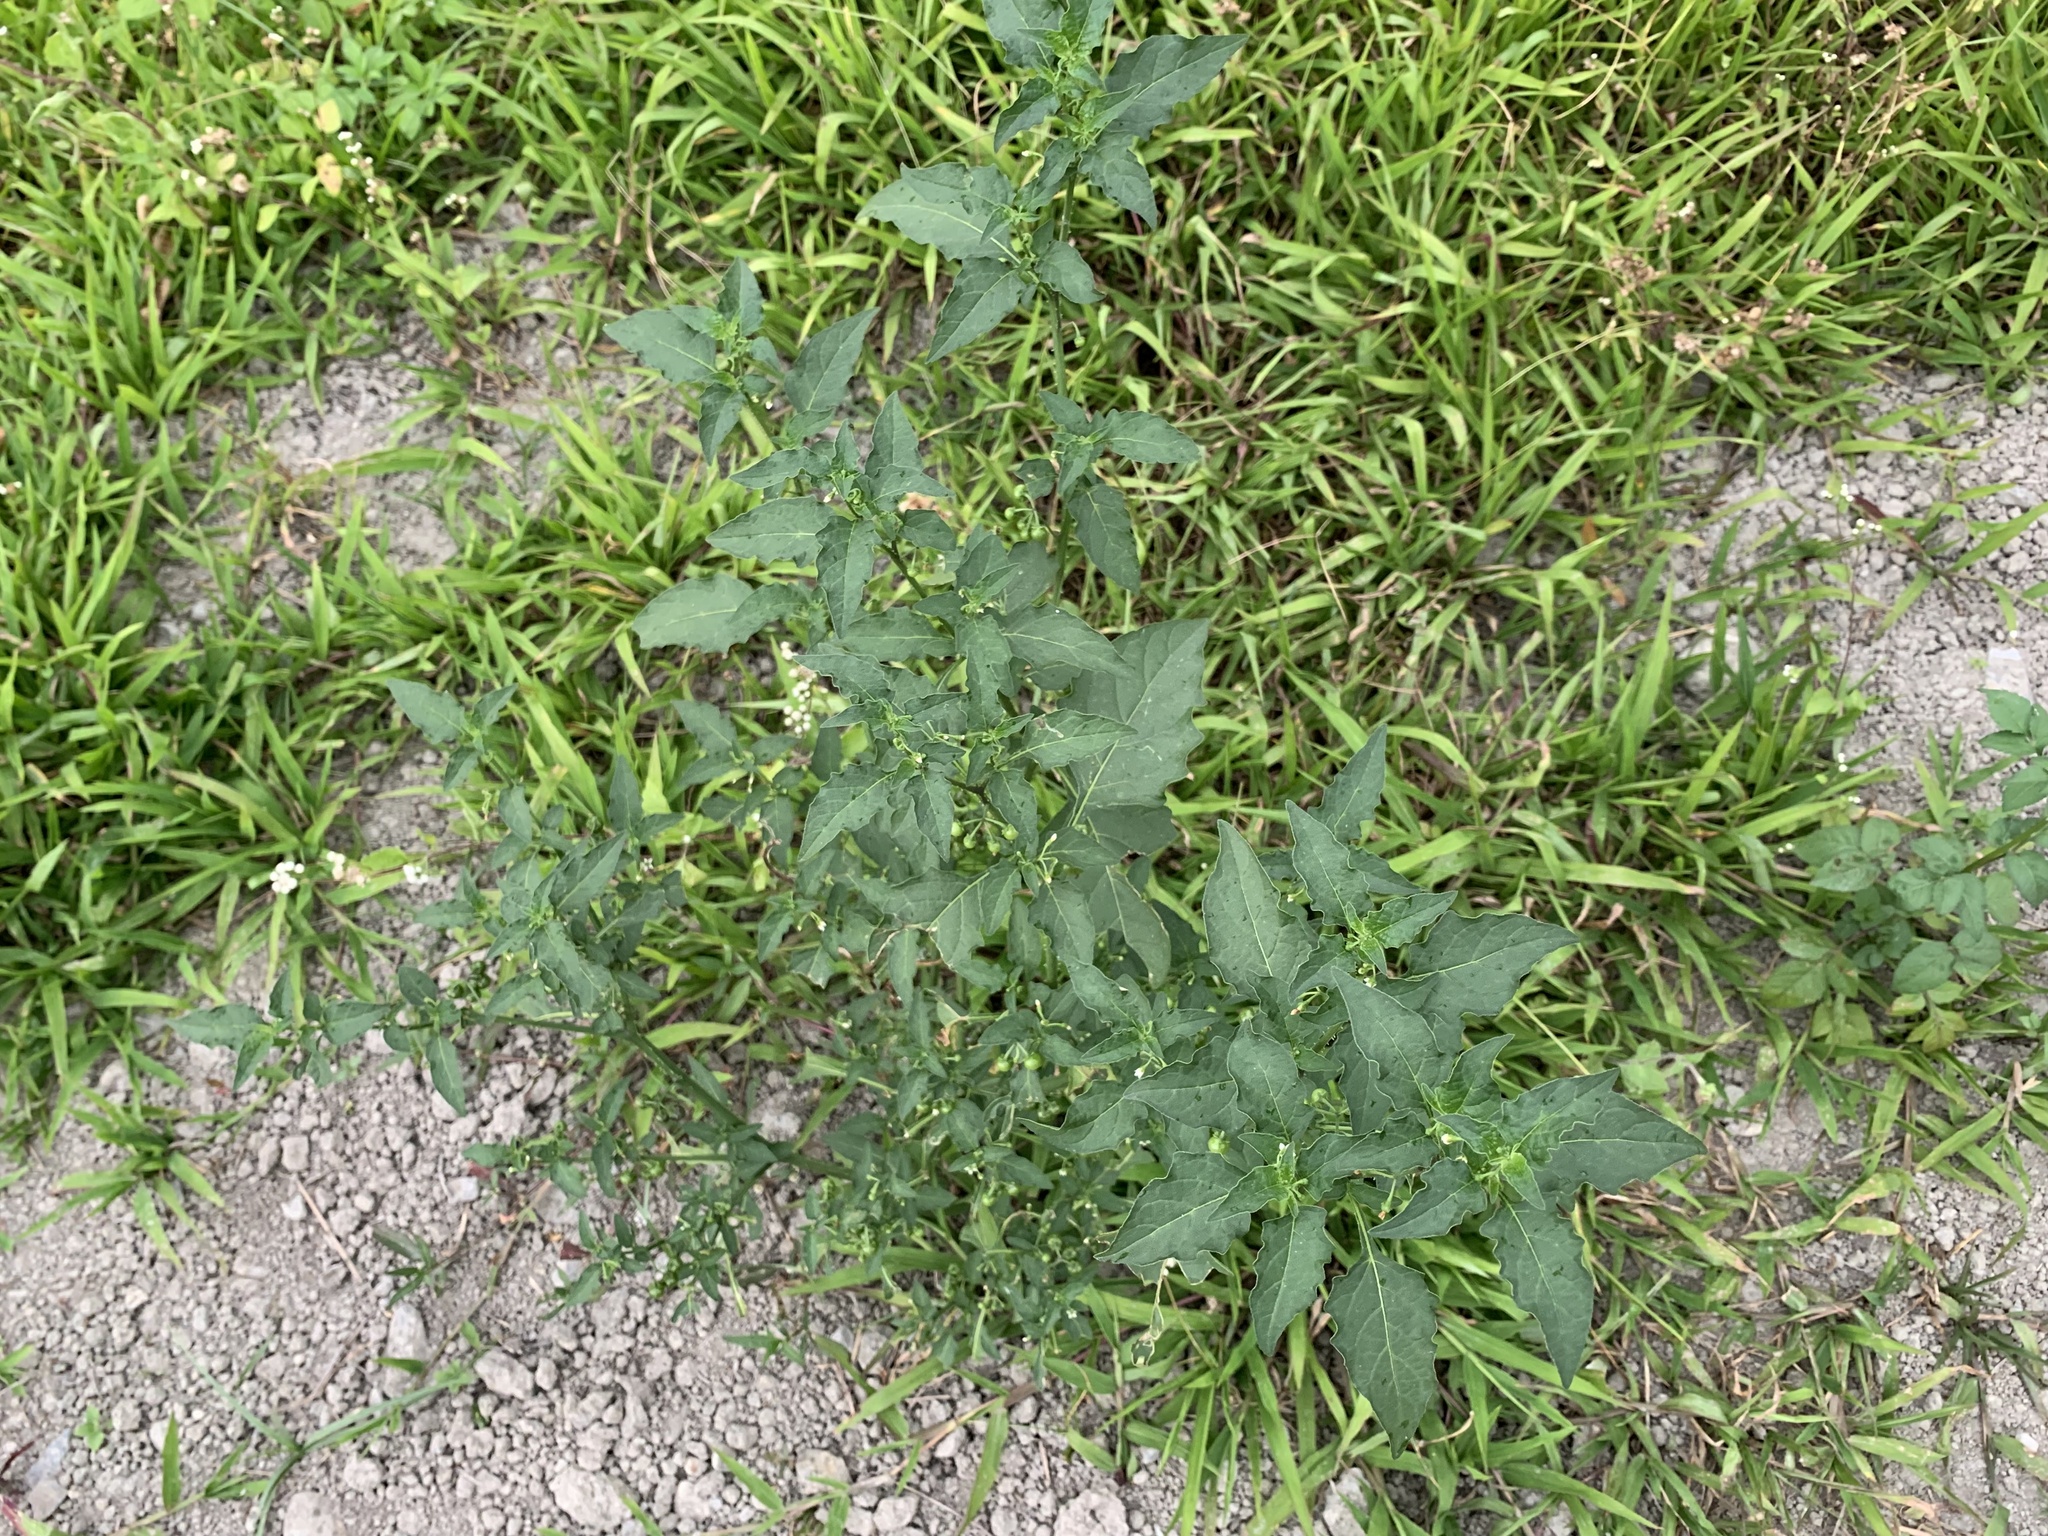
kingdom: Plantae
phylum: Tracheophyta
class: Magnoliopsida
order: Solanales
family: Solanaceae
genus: Solanum
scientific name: Solanum americanum
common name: American black nightshade
